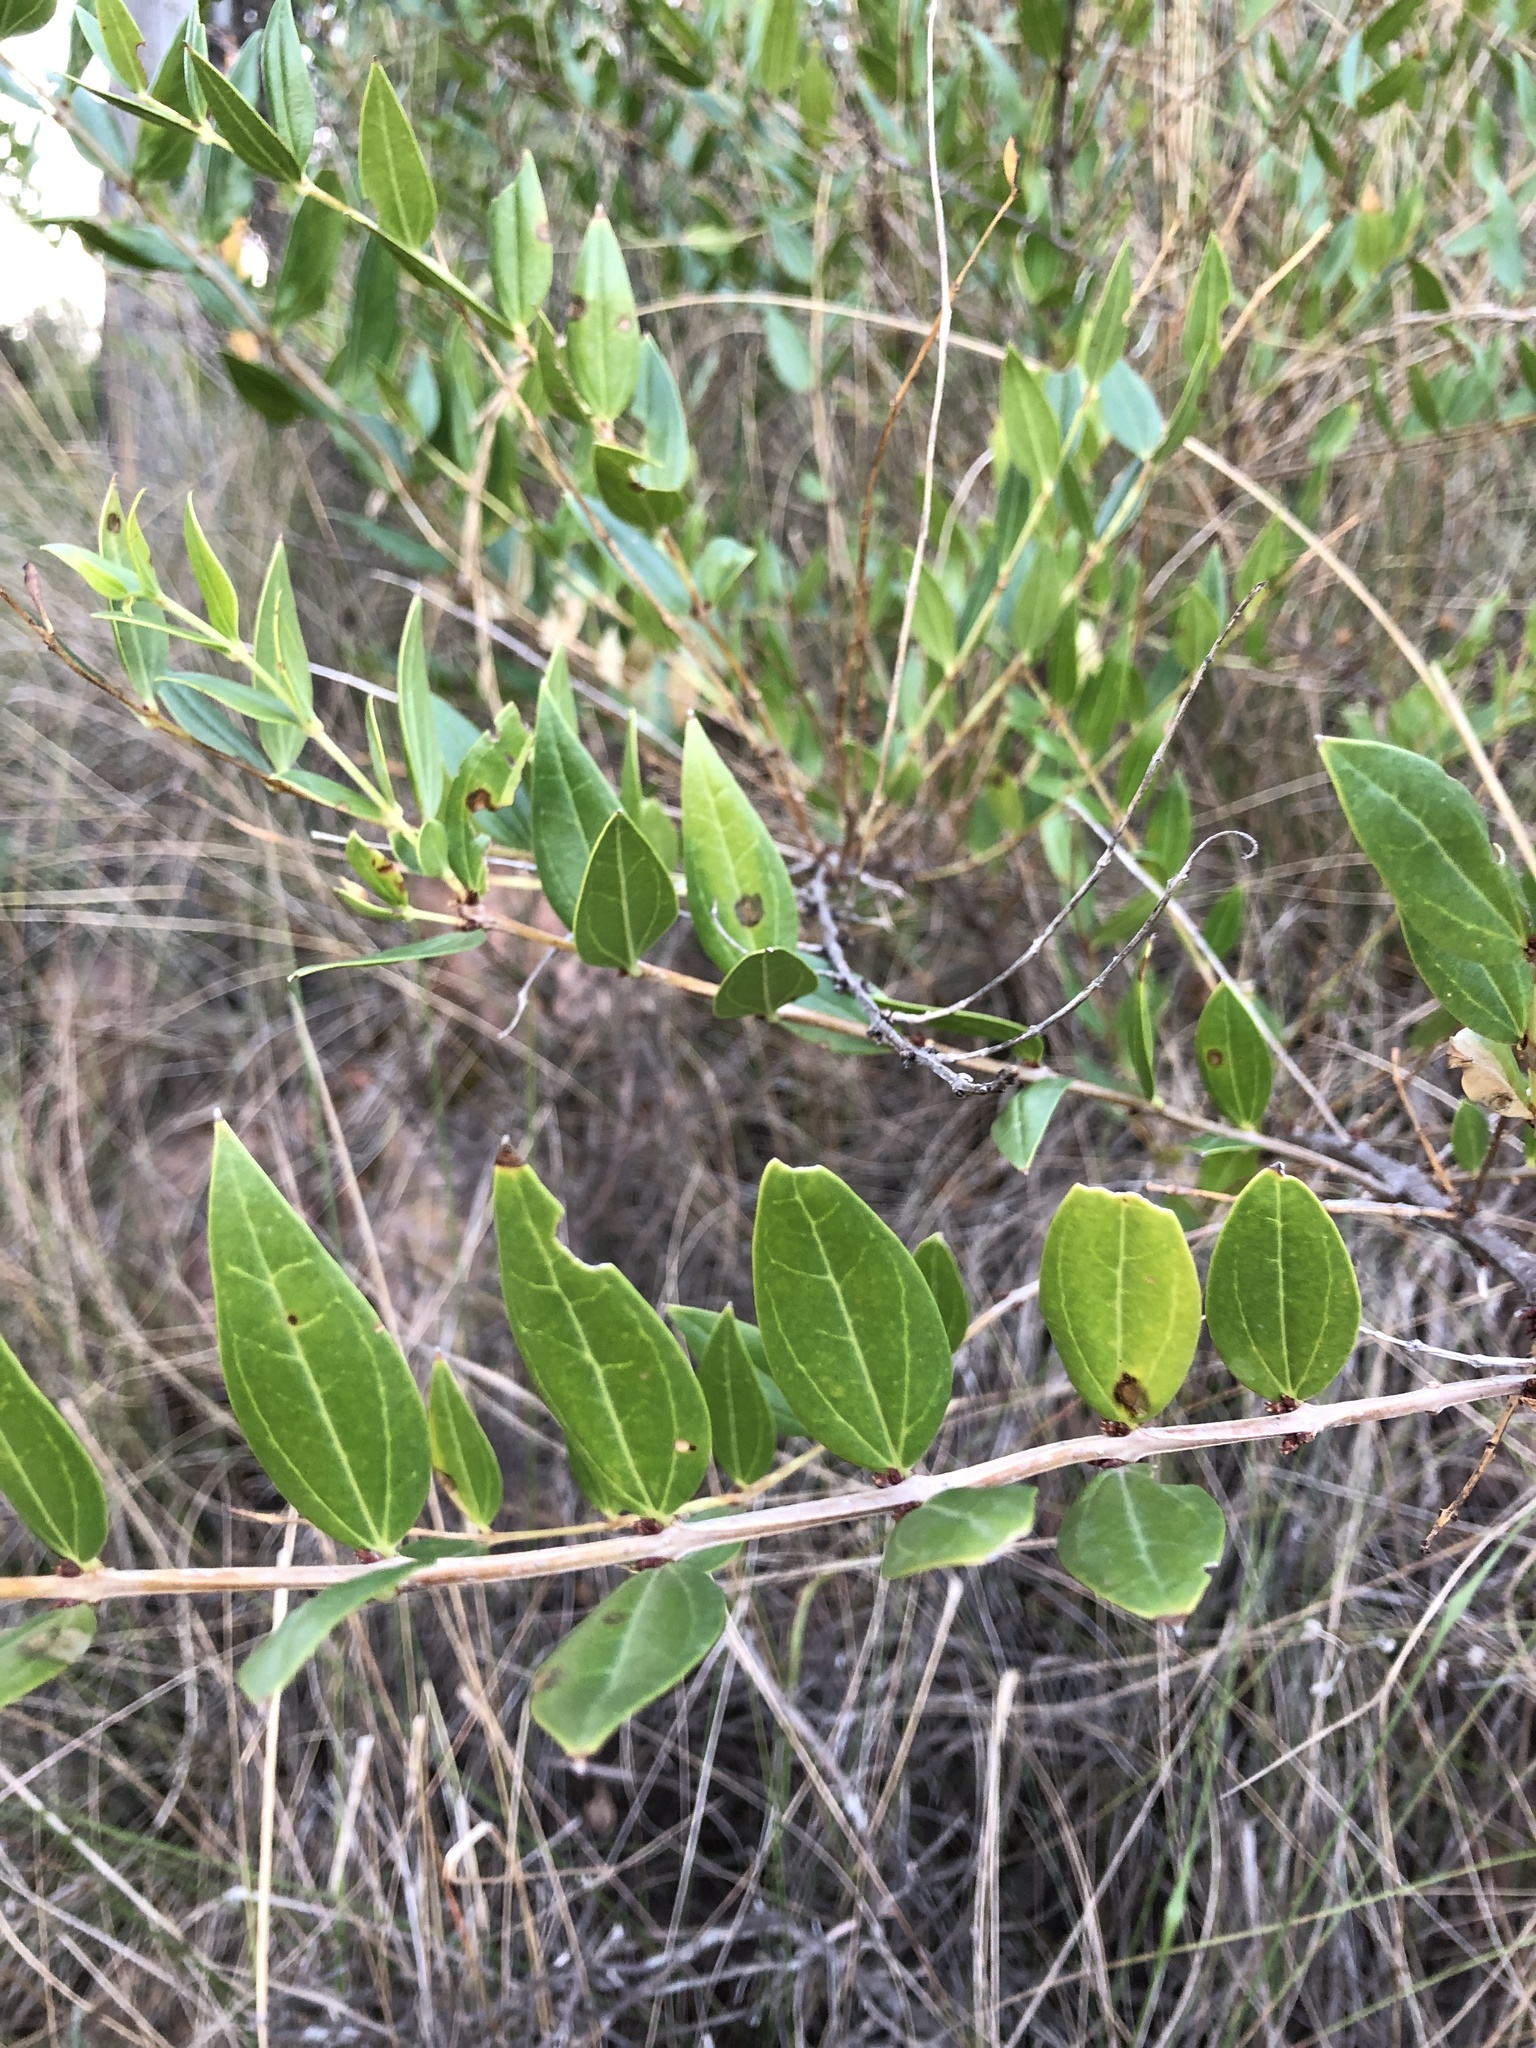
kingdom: Plantae
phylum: Tracheophyta
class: Magnoliopsida
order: Cucurbitales
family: Coriariaceae
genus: Coriaria
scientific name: Coriaria myrtifolia
